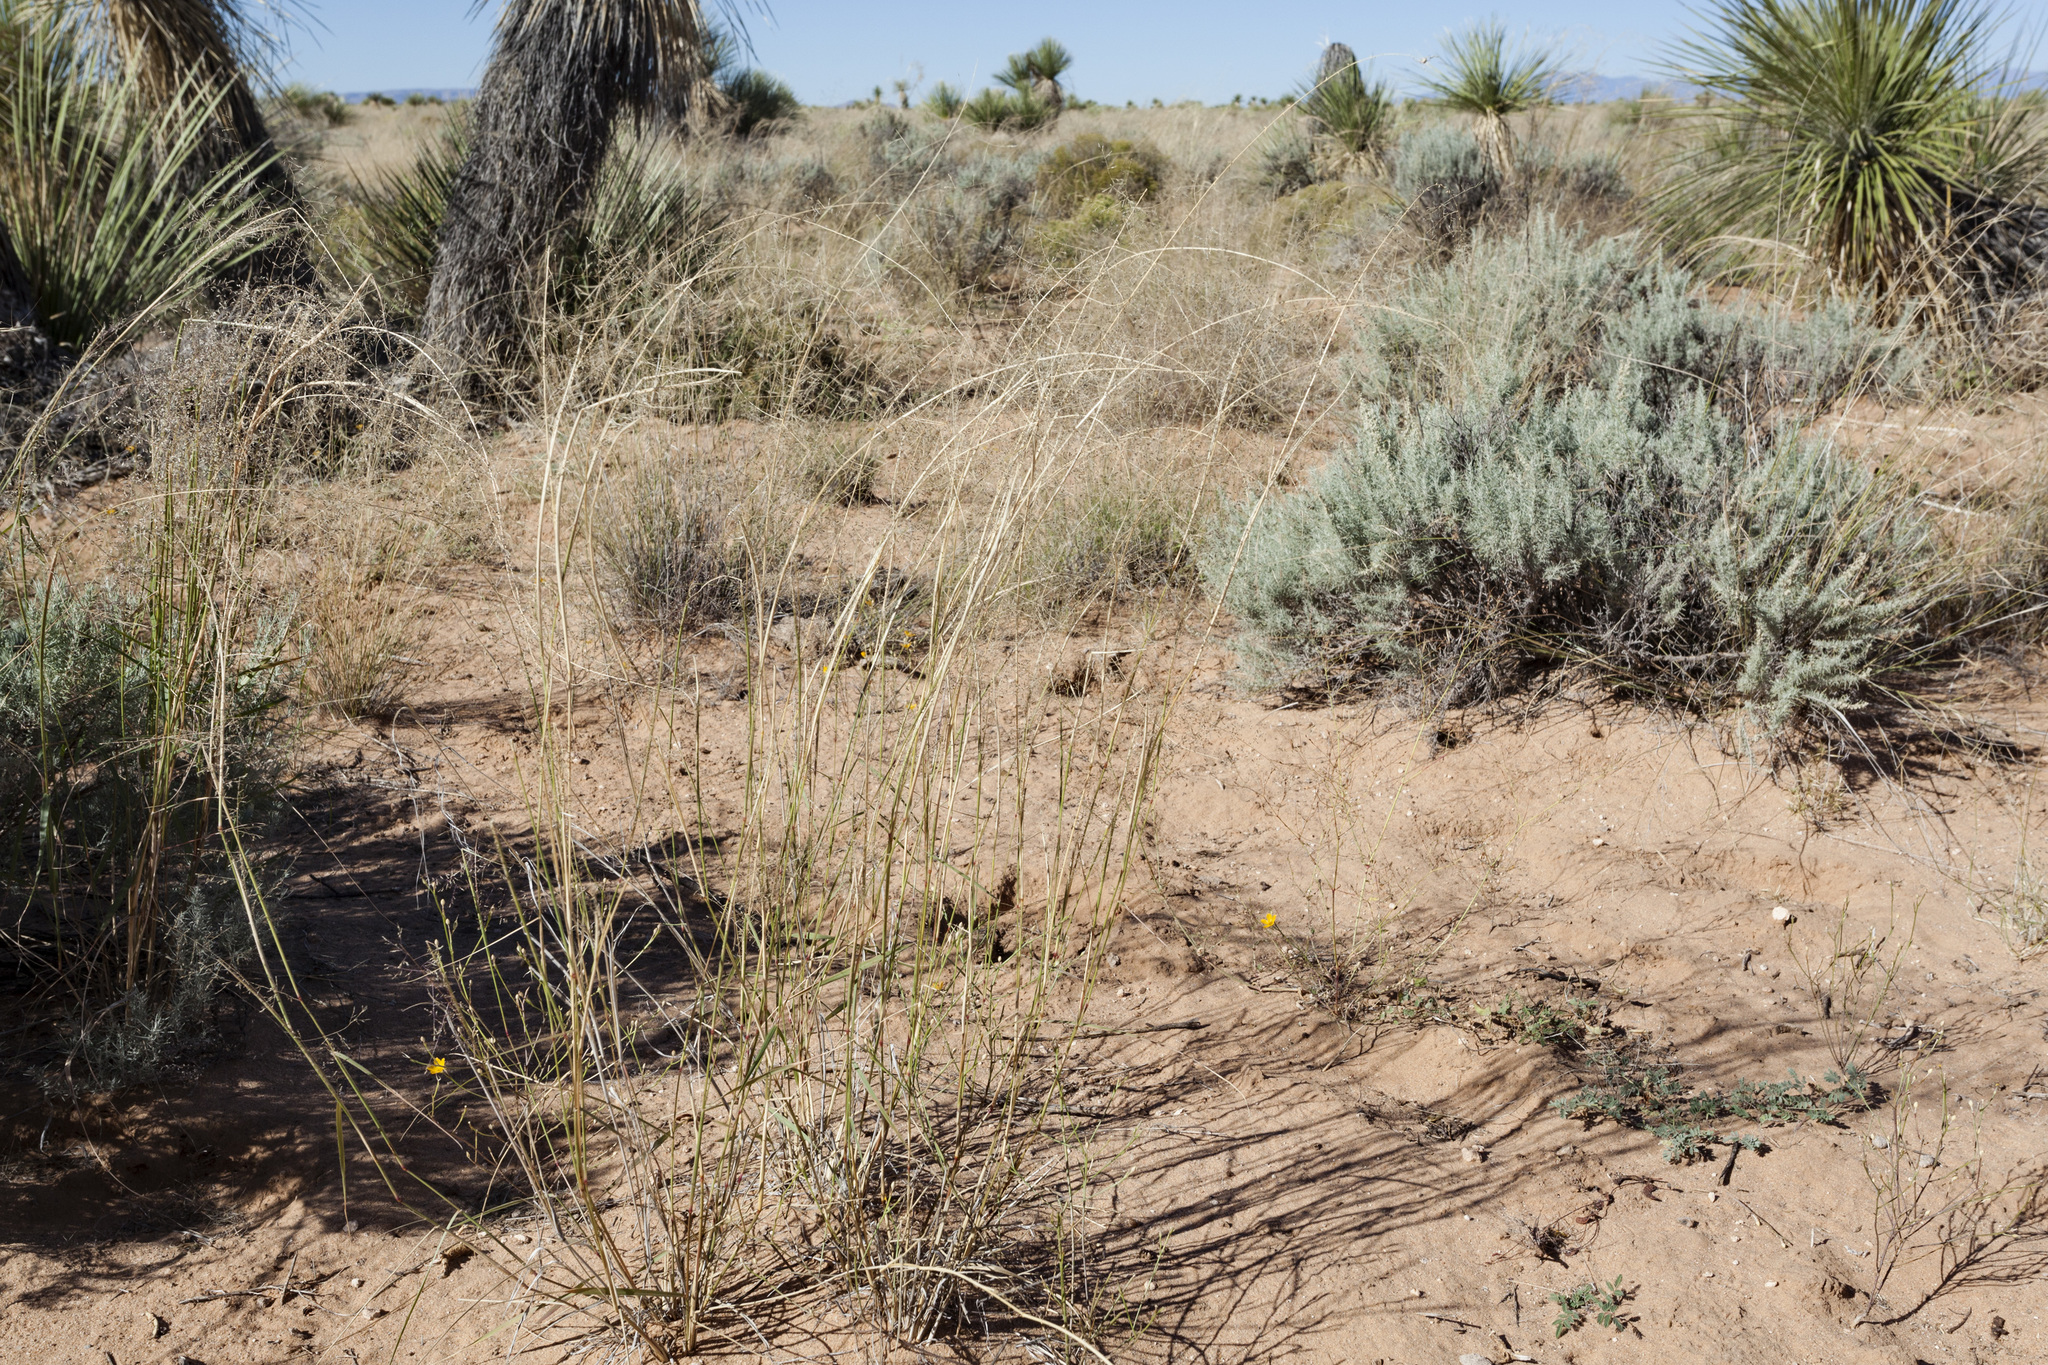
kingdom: Plantae
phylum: Tracheophyta
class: Liliopsida
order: Poales
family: Poaceae
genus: Sporobolus
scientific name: Sporobolus flexuosus
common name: Mesa dropseed
